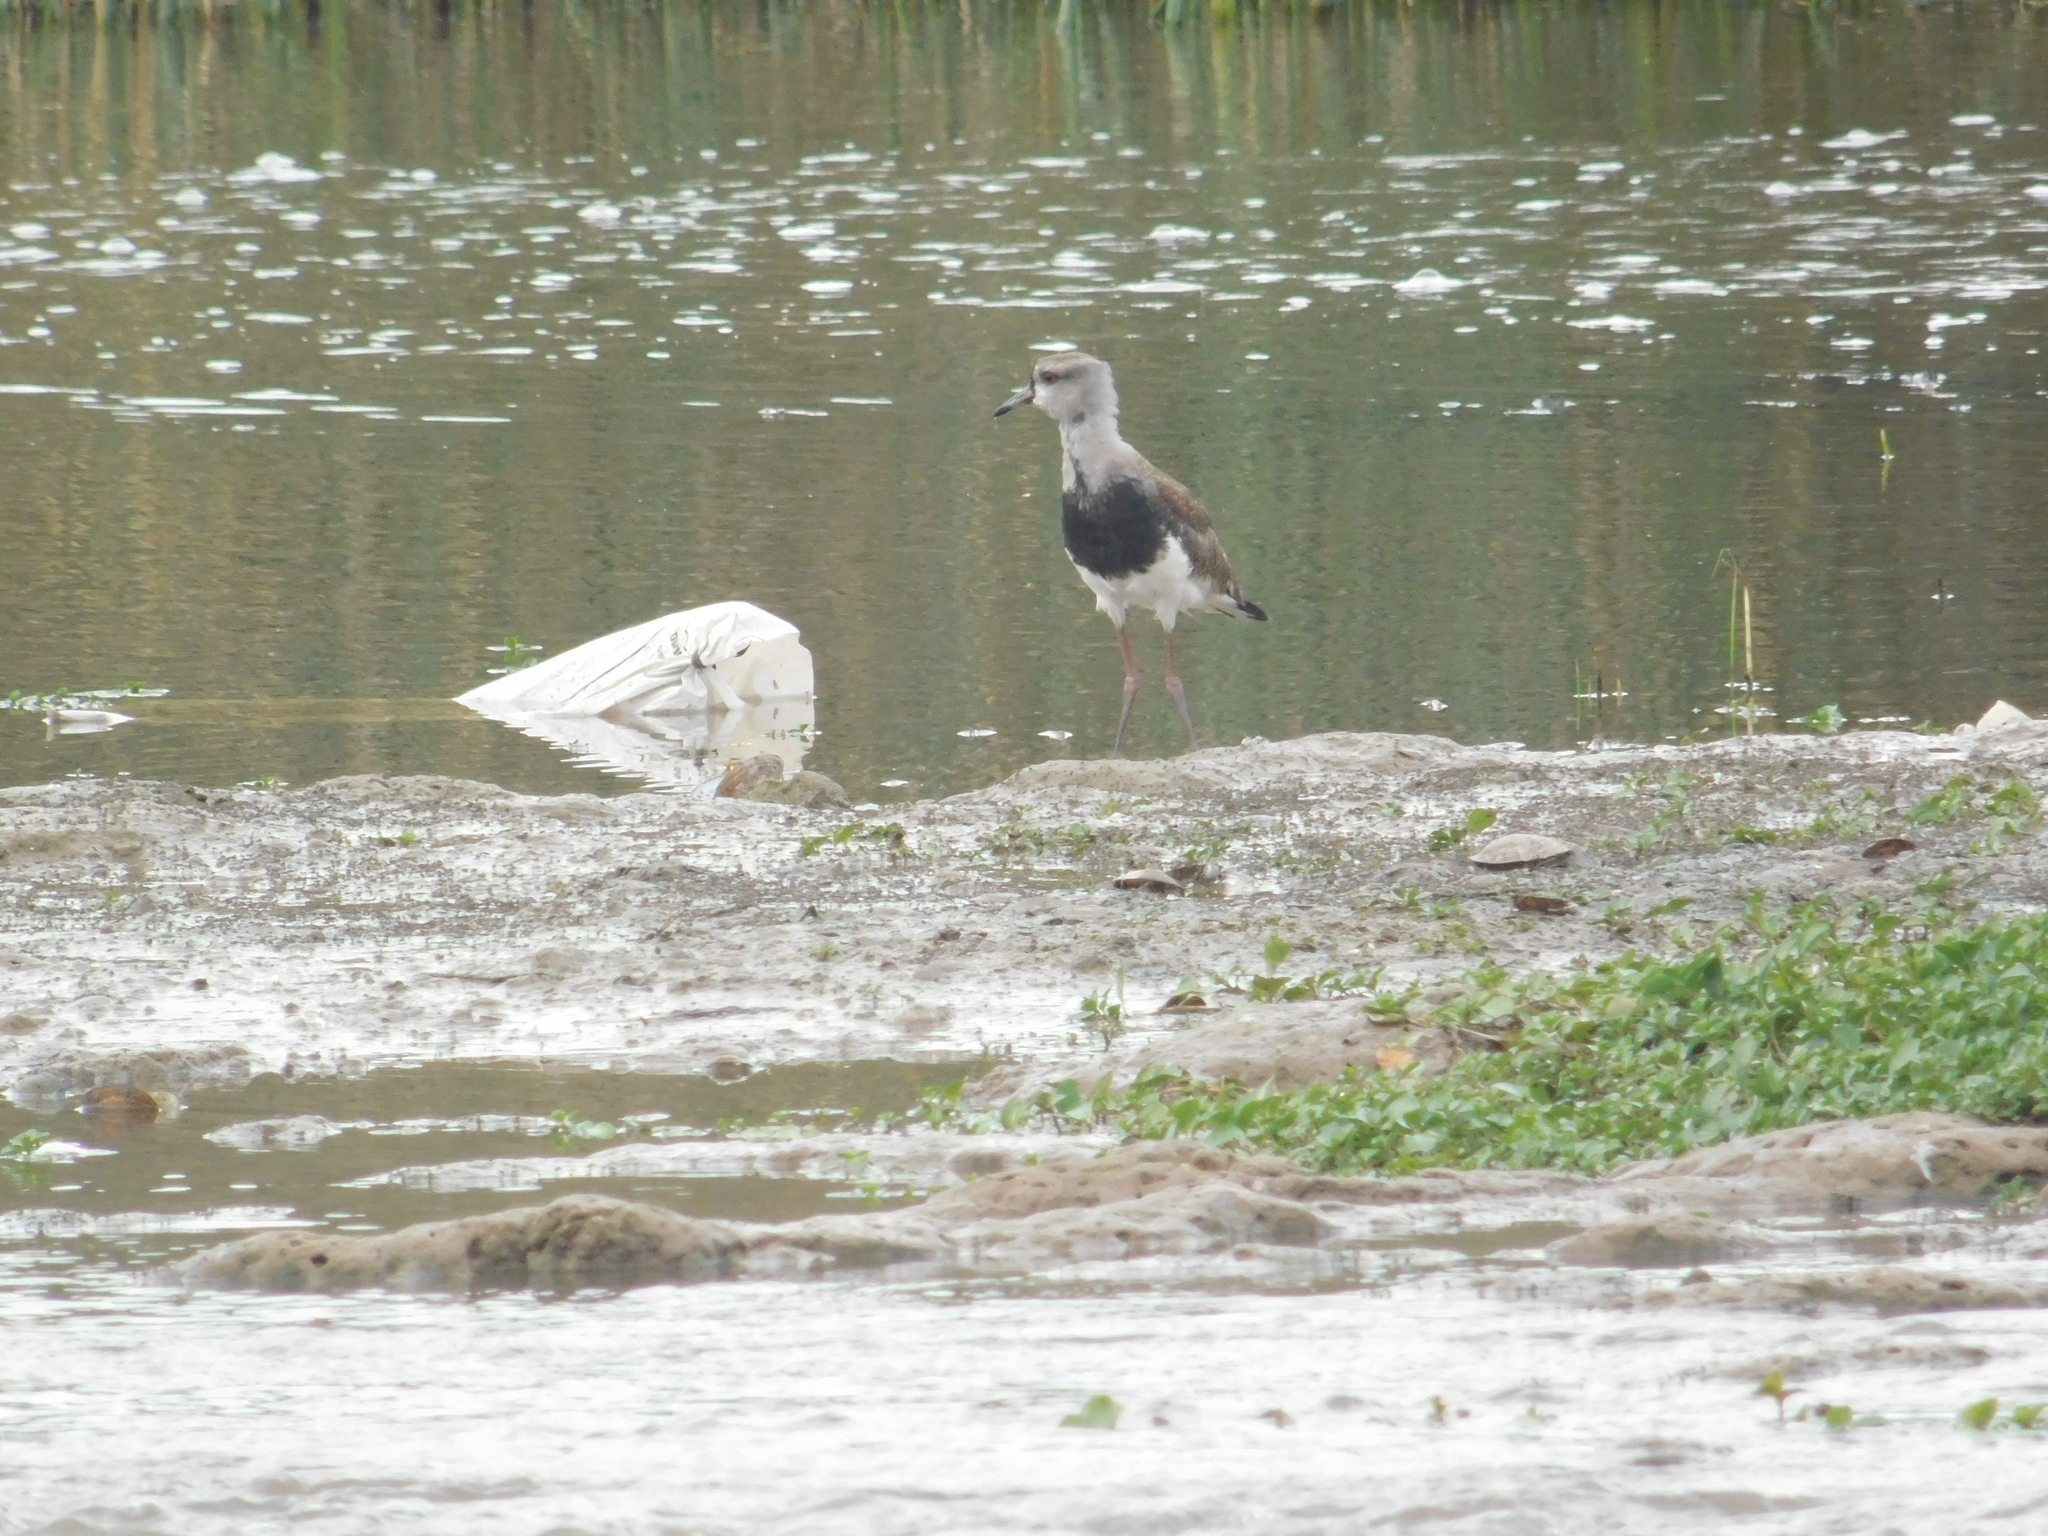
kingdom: Animalia
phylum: Chordata
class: Aves
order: Charadriiformes
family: Charadriidae
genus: Vanellus
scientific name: Vanellus chilensis
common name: Southern lapwing
